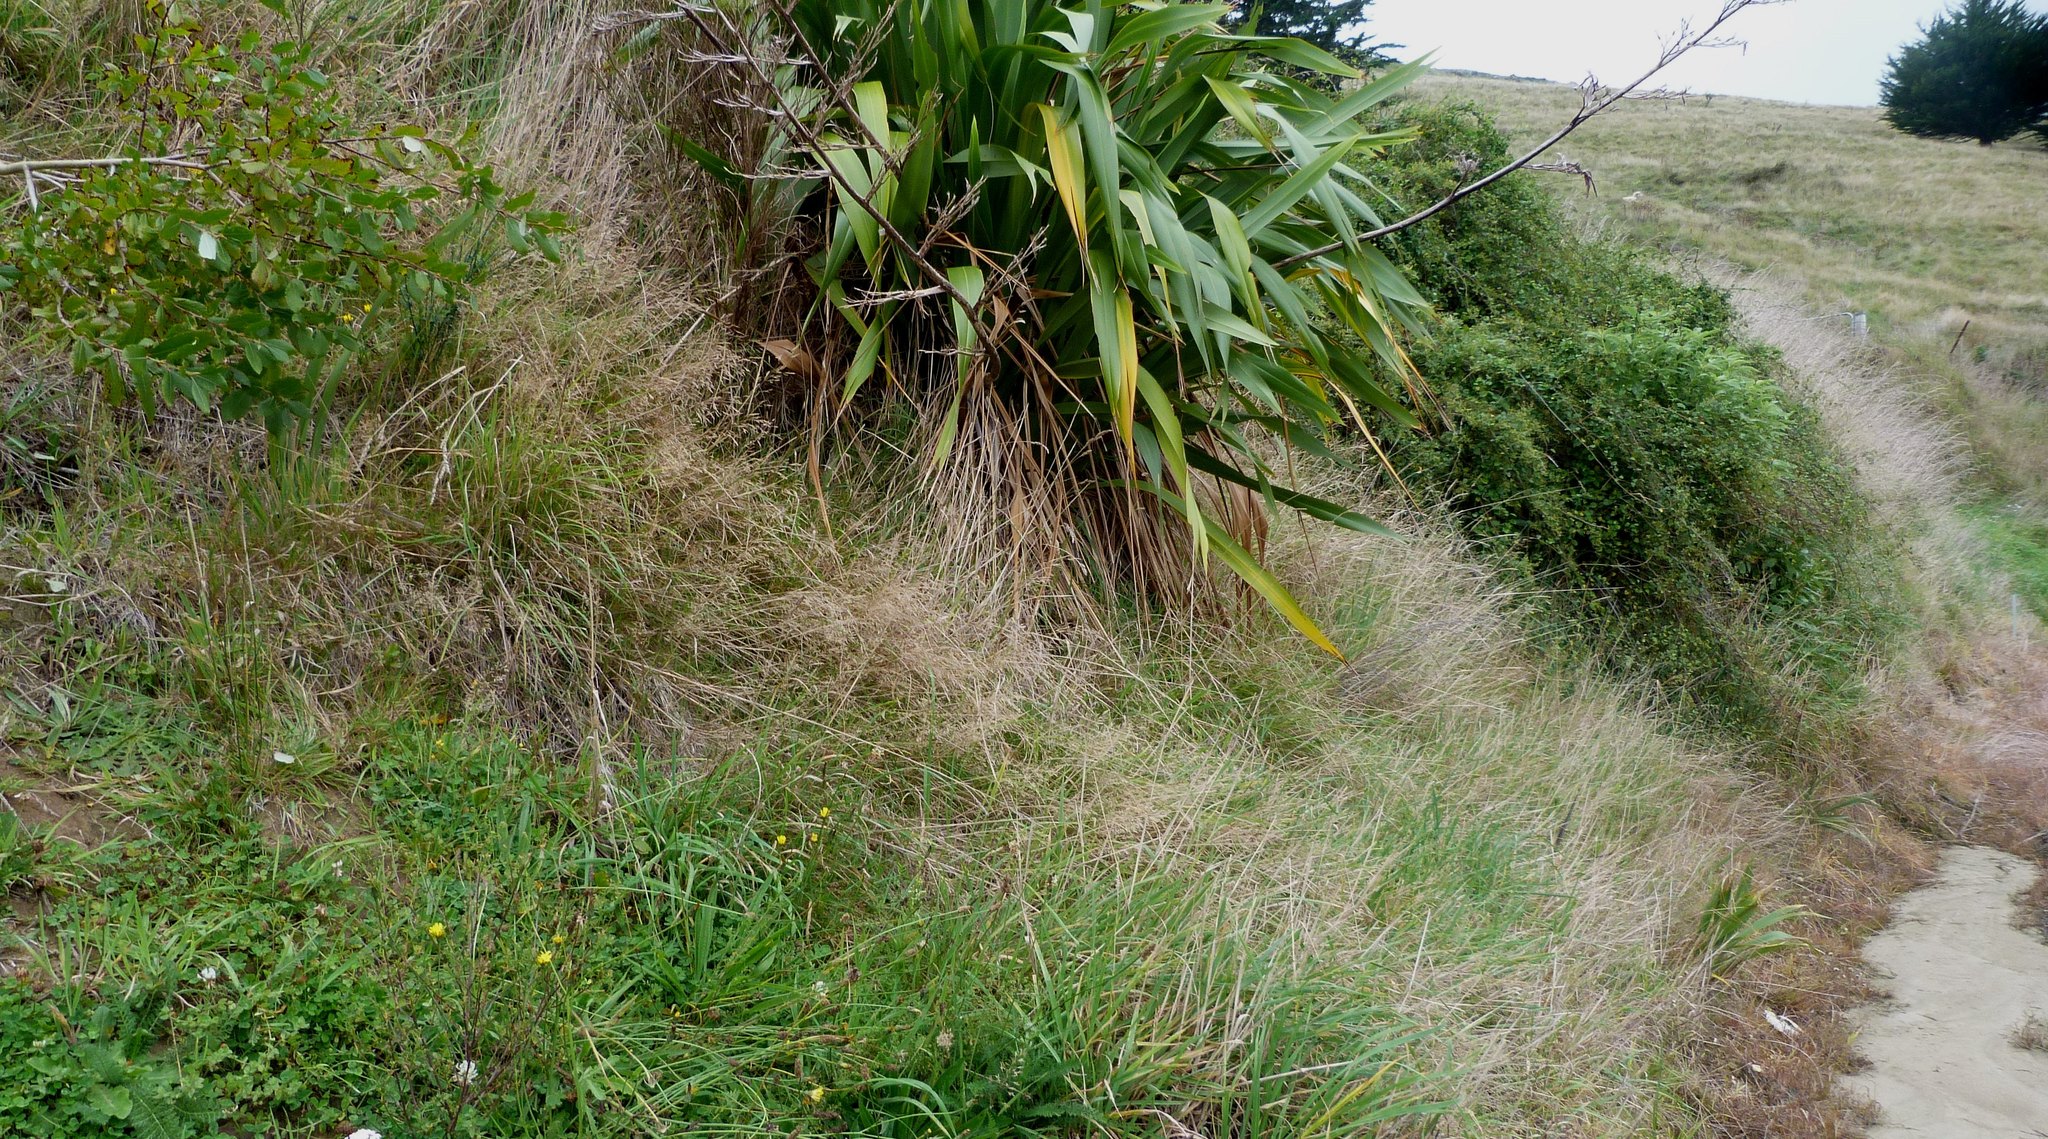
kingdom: Plantae
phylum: Tracheophyta
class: Liliopsida
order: Asparagales
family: Asphodelaceae
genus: Phormium
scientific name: Phormium colensoi
